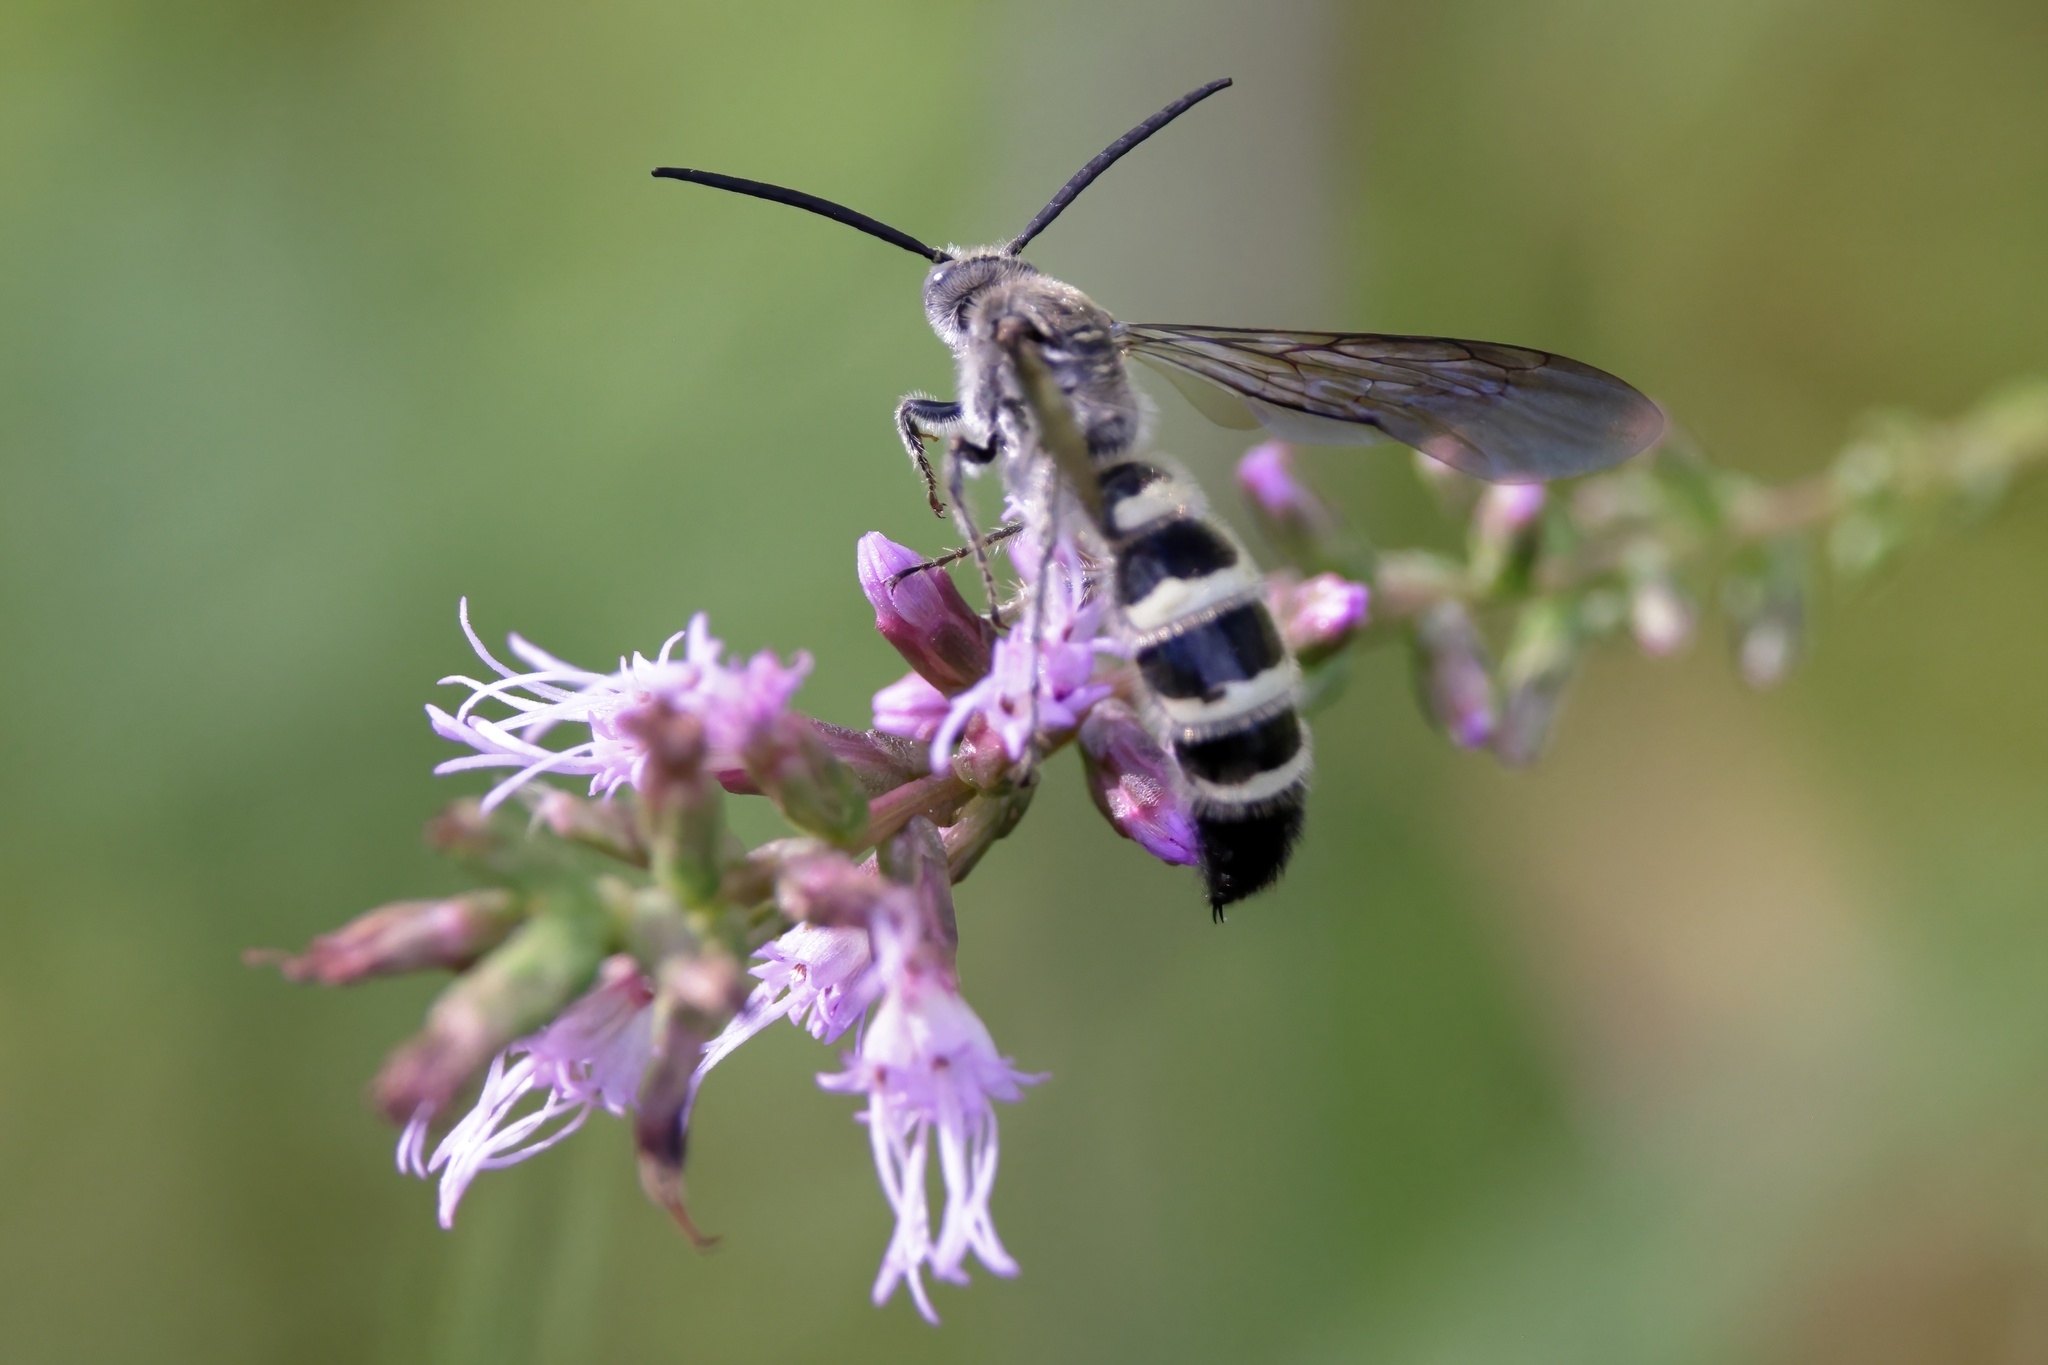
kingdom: Animalia
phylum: Arthropoda
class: Insecta
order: Hymenoptera
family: Scoliidae
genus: Dielis
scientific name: Dielis
